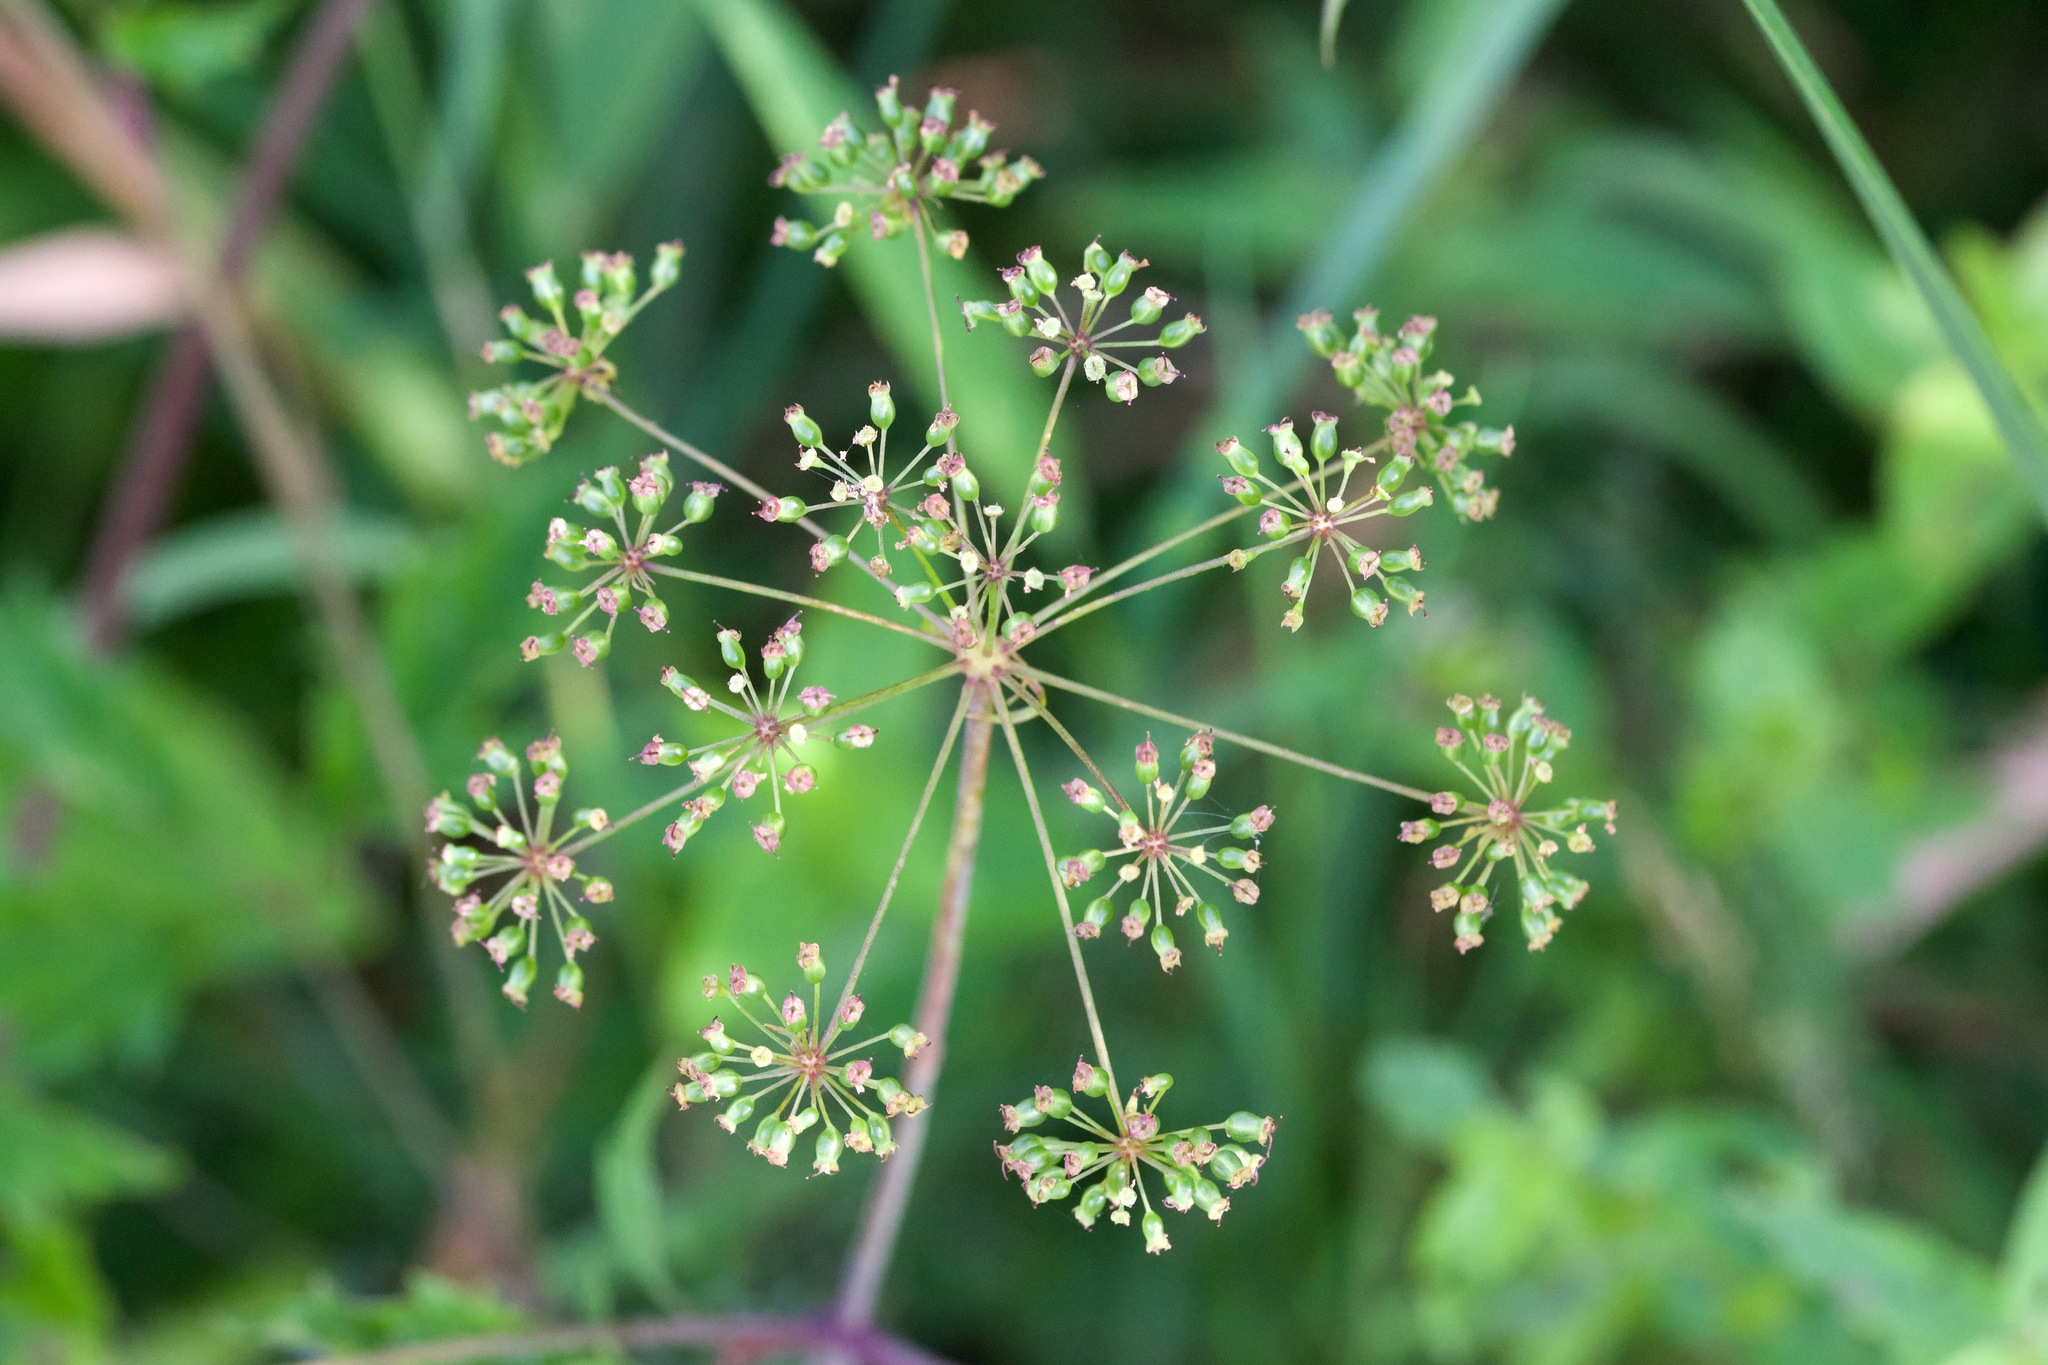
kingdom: Plantae
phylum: Tracheophyta
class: Magnoliopsida
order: Apiales
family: Apiaceae
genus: Cicuta
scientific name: Cicuta maculata
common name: Spotted cowbane
